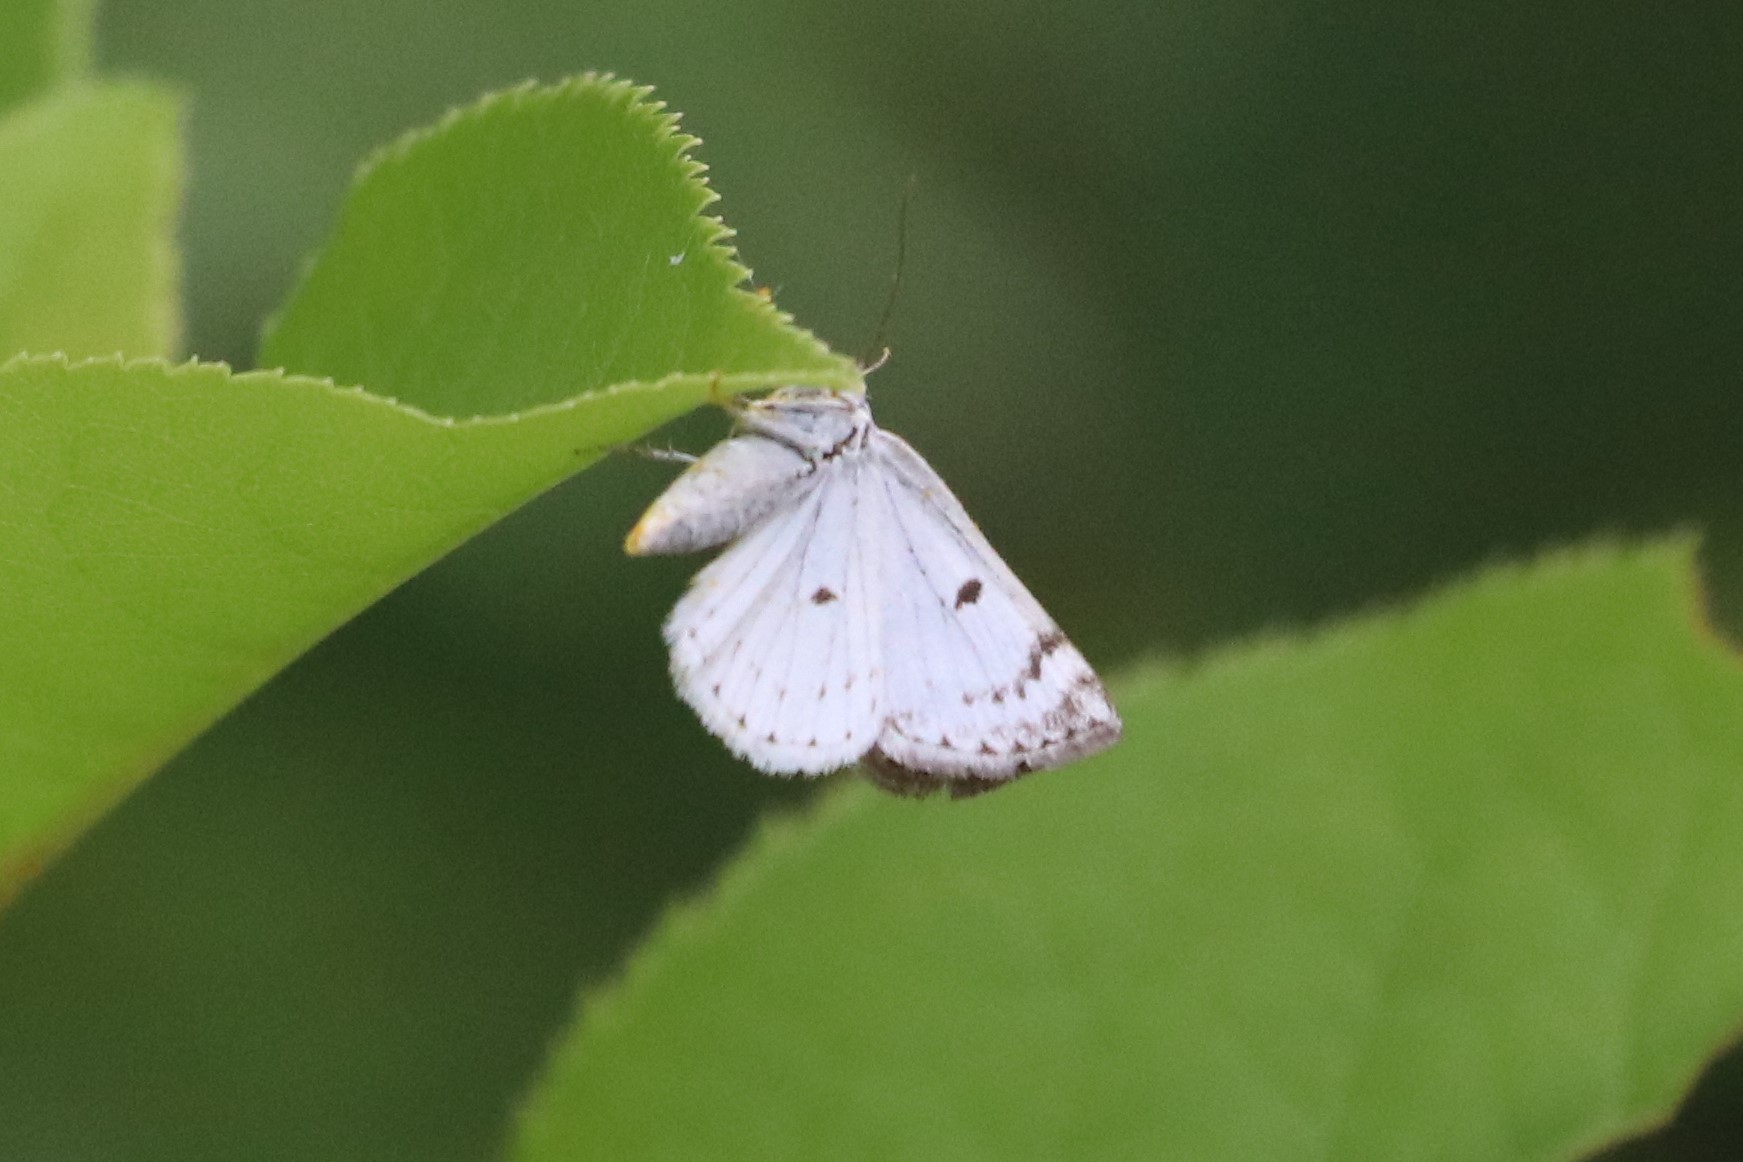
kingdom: Animalia
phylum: Arthropoda
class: Insecta
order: Lepidoptera
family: Geometridae
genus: Lomographa
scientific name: Lomographa semiclarata
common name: Bluish spring moth
